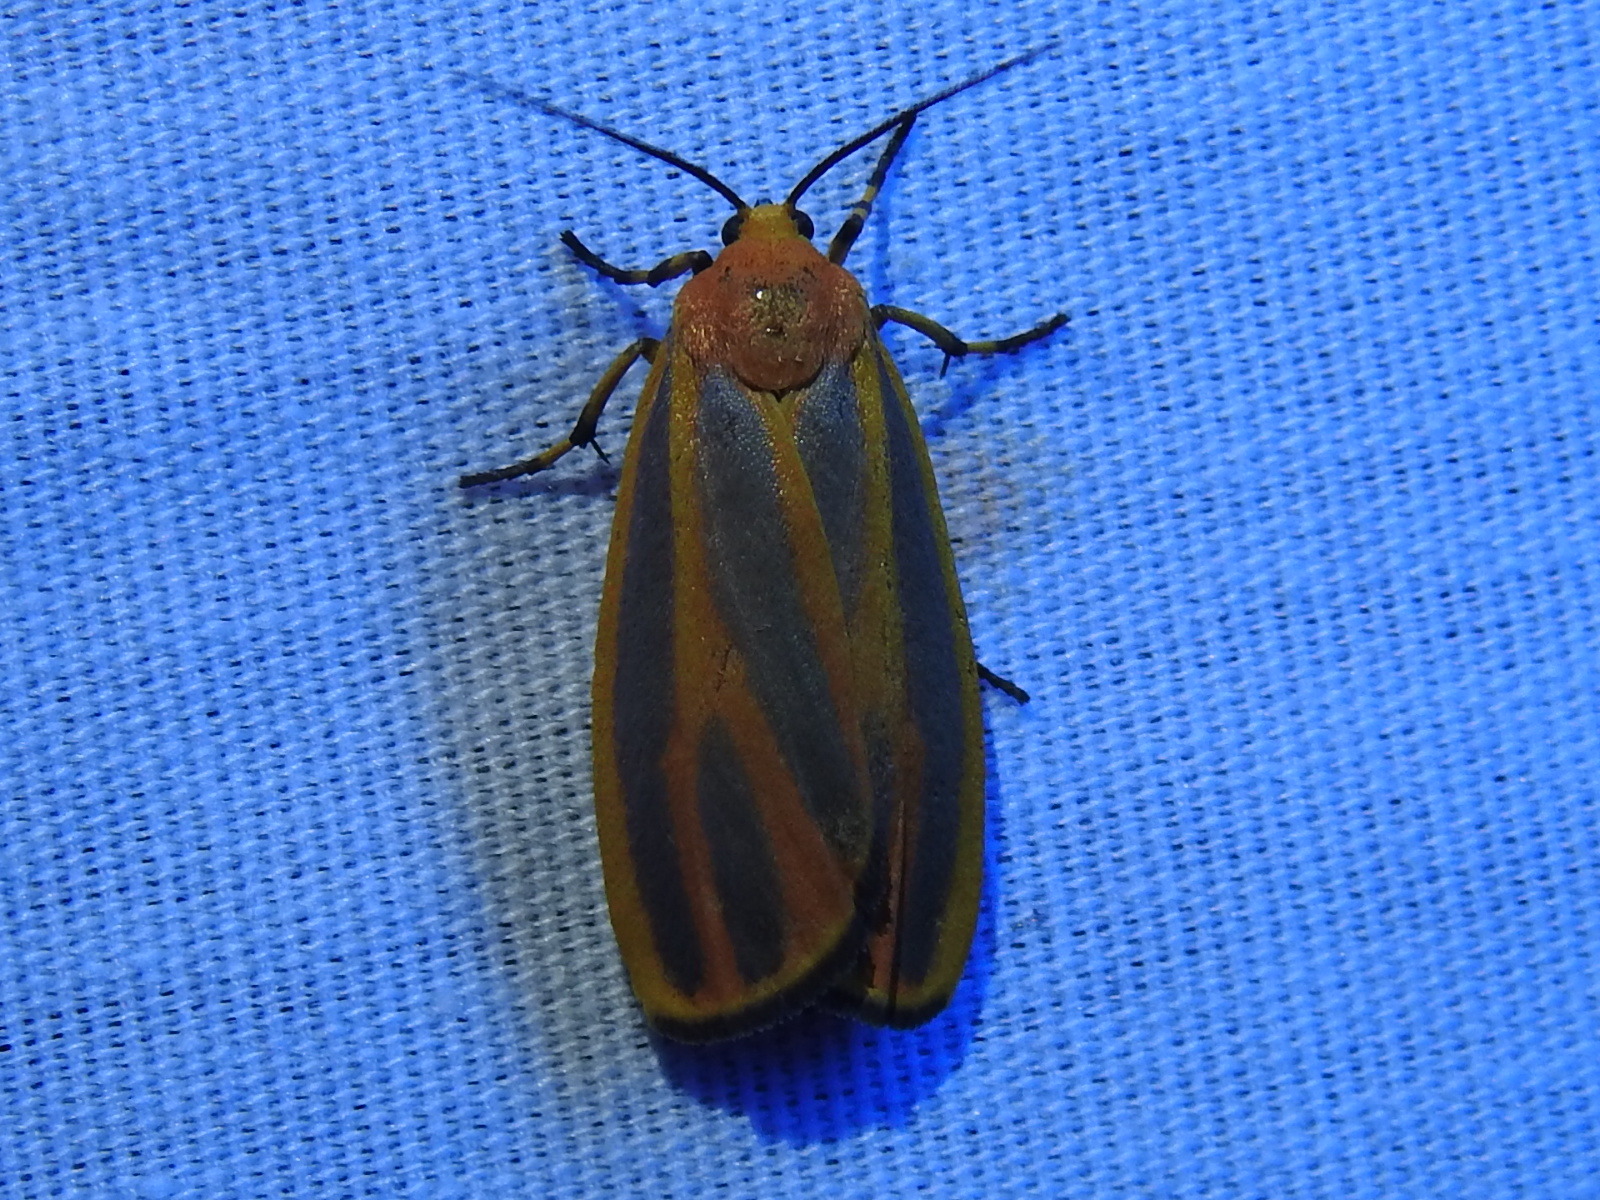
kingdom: Animalia
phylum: Arthropoda
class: Insecta
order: Lepidoptera
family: Erebidae
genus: Hypoprepia
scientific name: Hypoprepia fucosa
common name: Painted lichen moth
